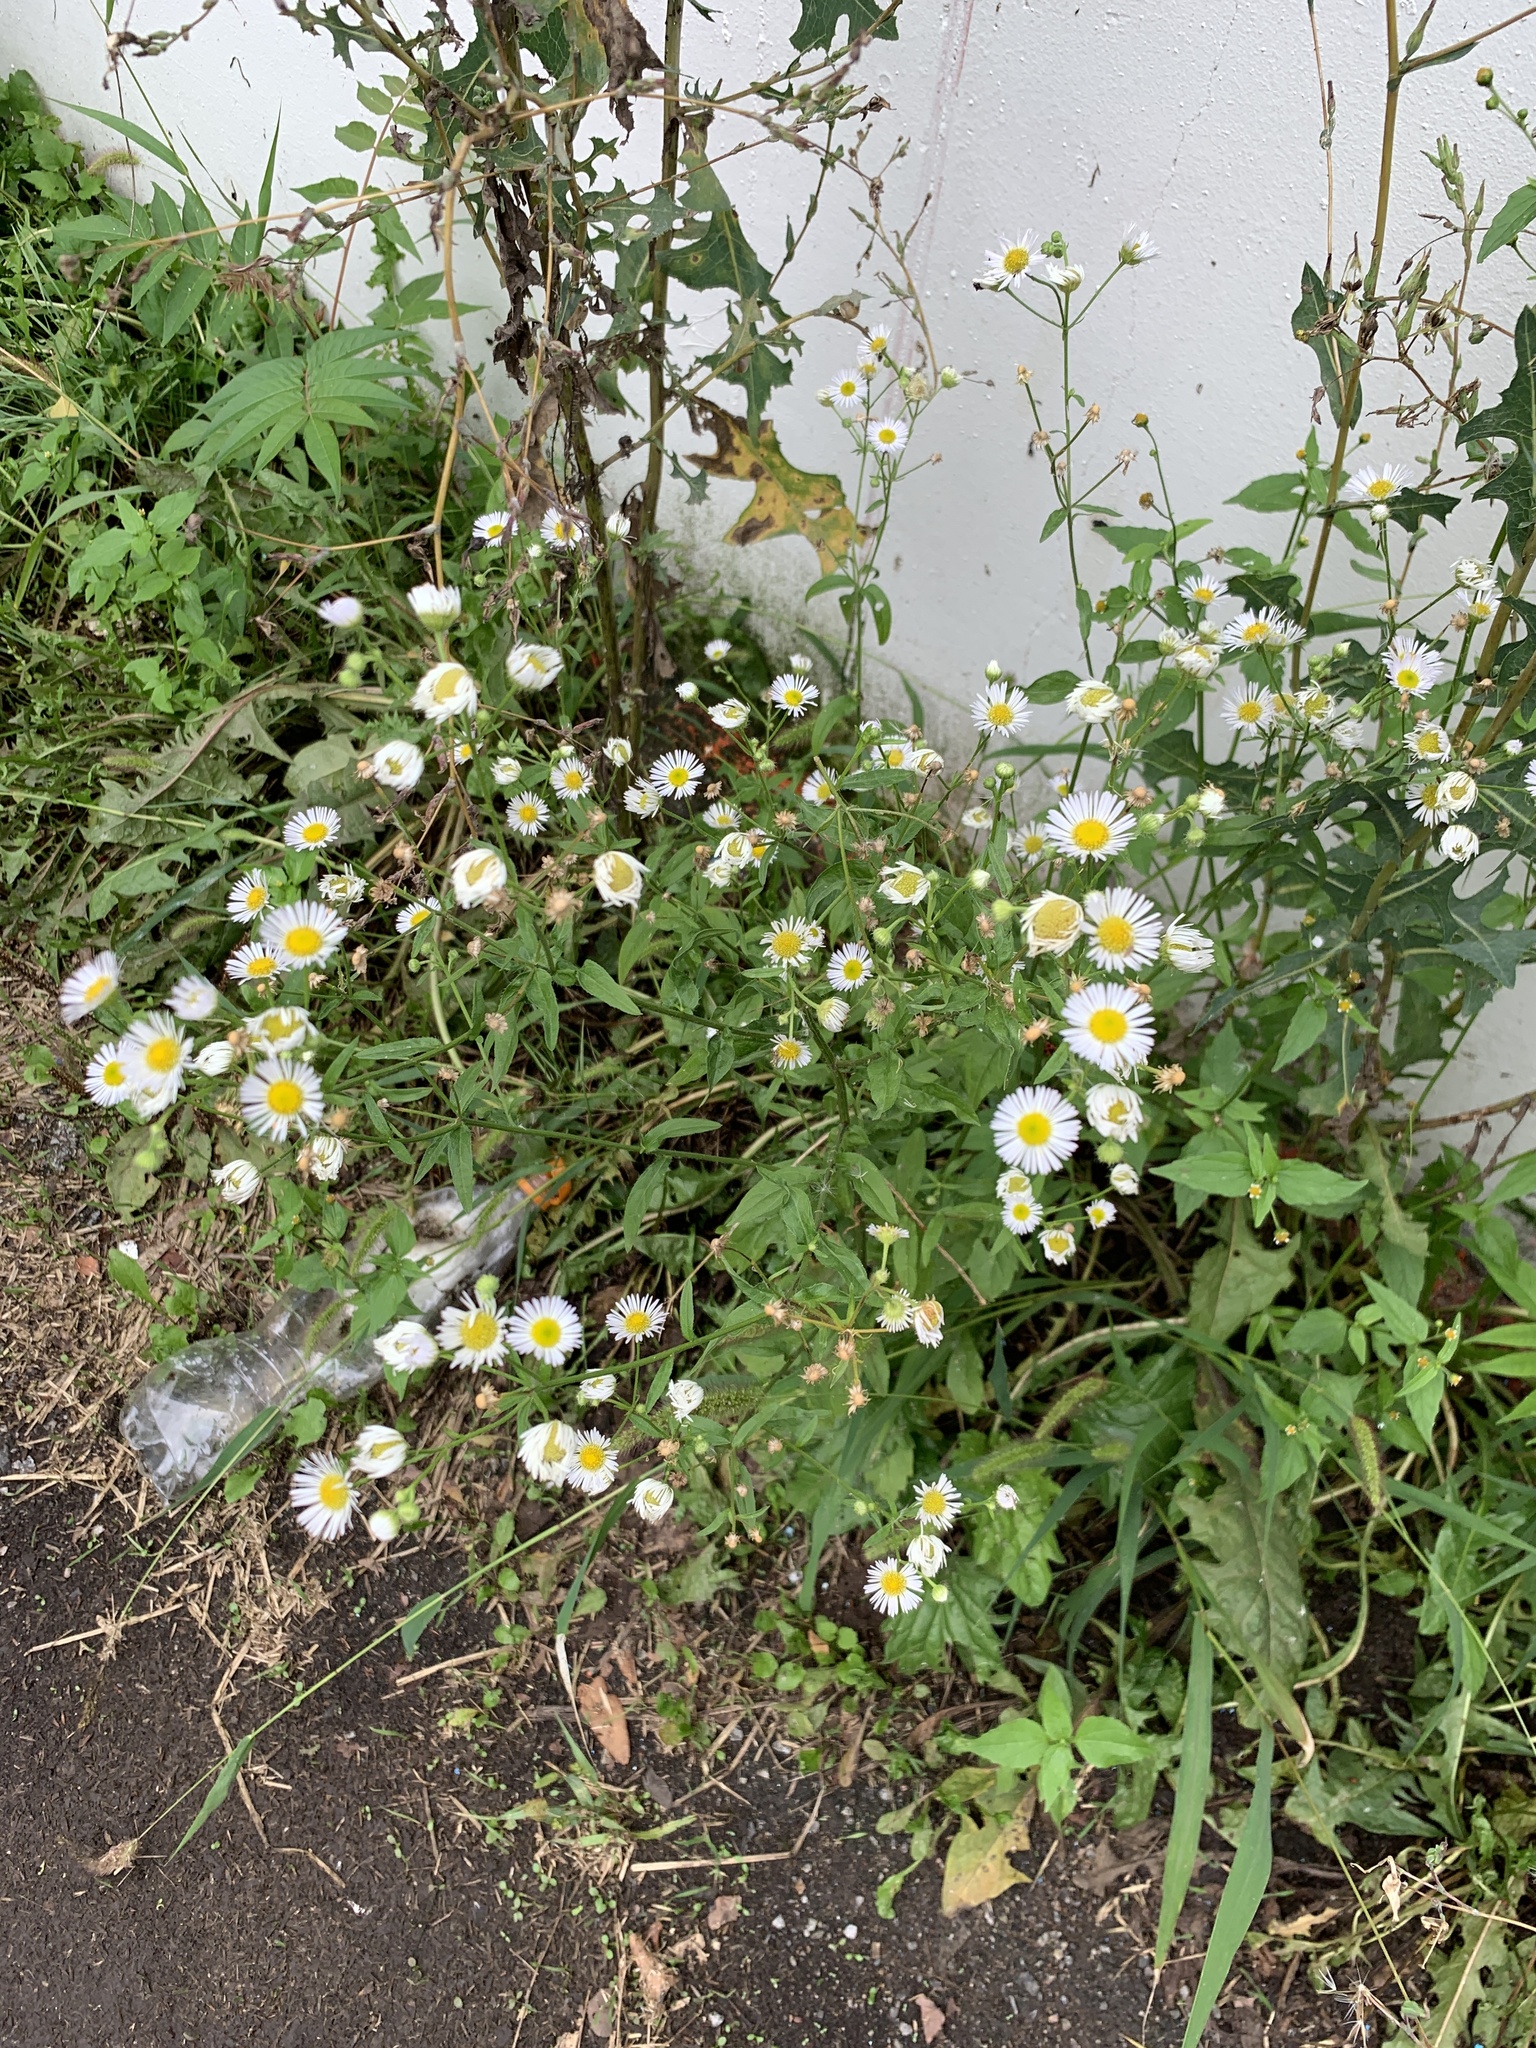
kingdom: Plantae
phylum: Tracheophyta
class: Magnoliopsida
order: Asterales
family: Asteraceae
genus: Erigeron
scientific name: Erigeron annuus
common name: Tall fleabane
